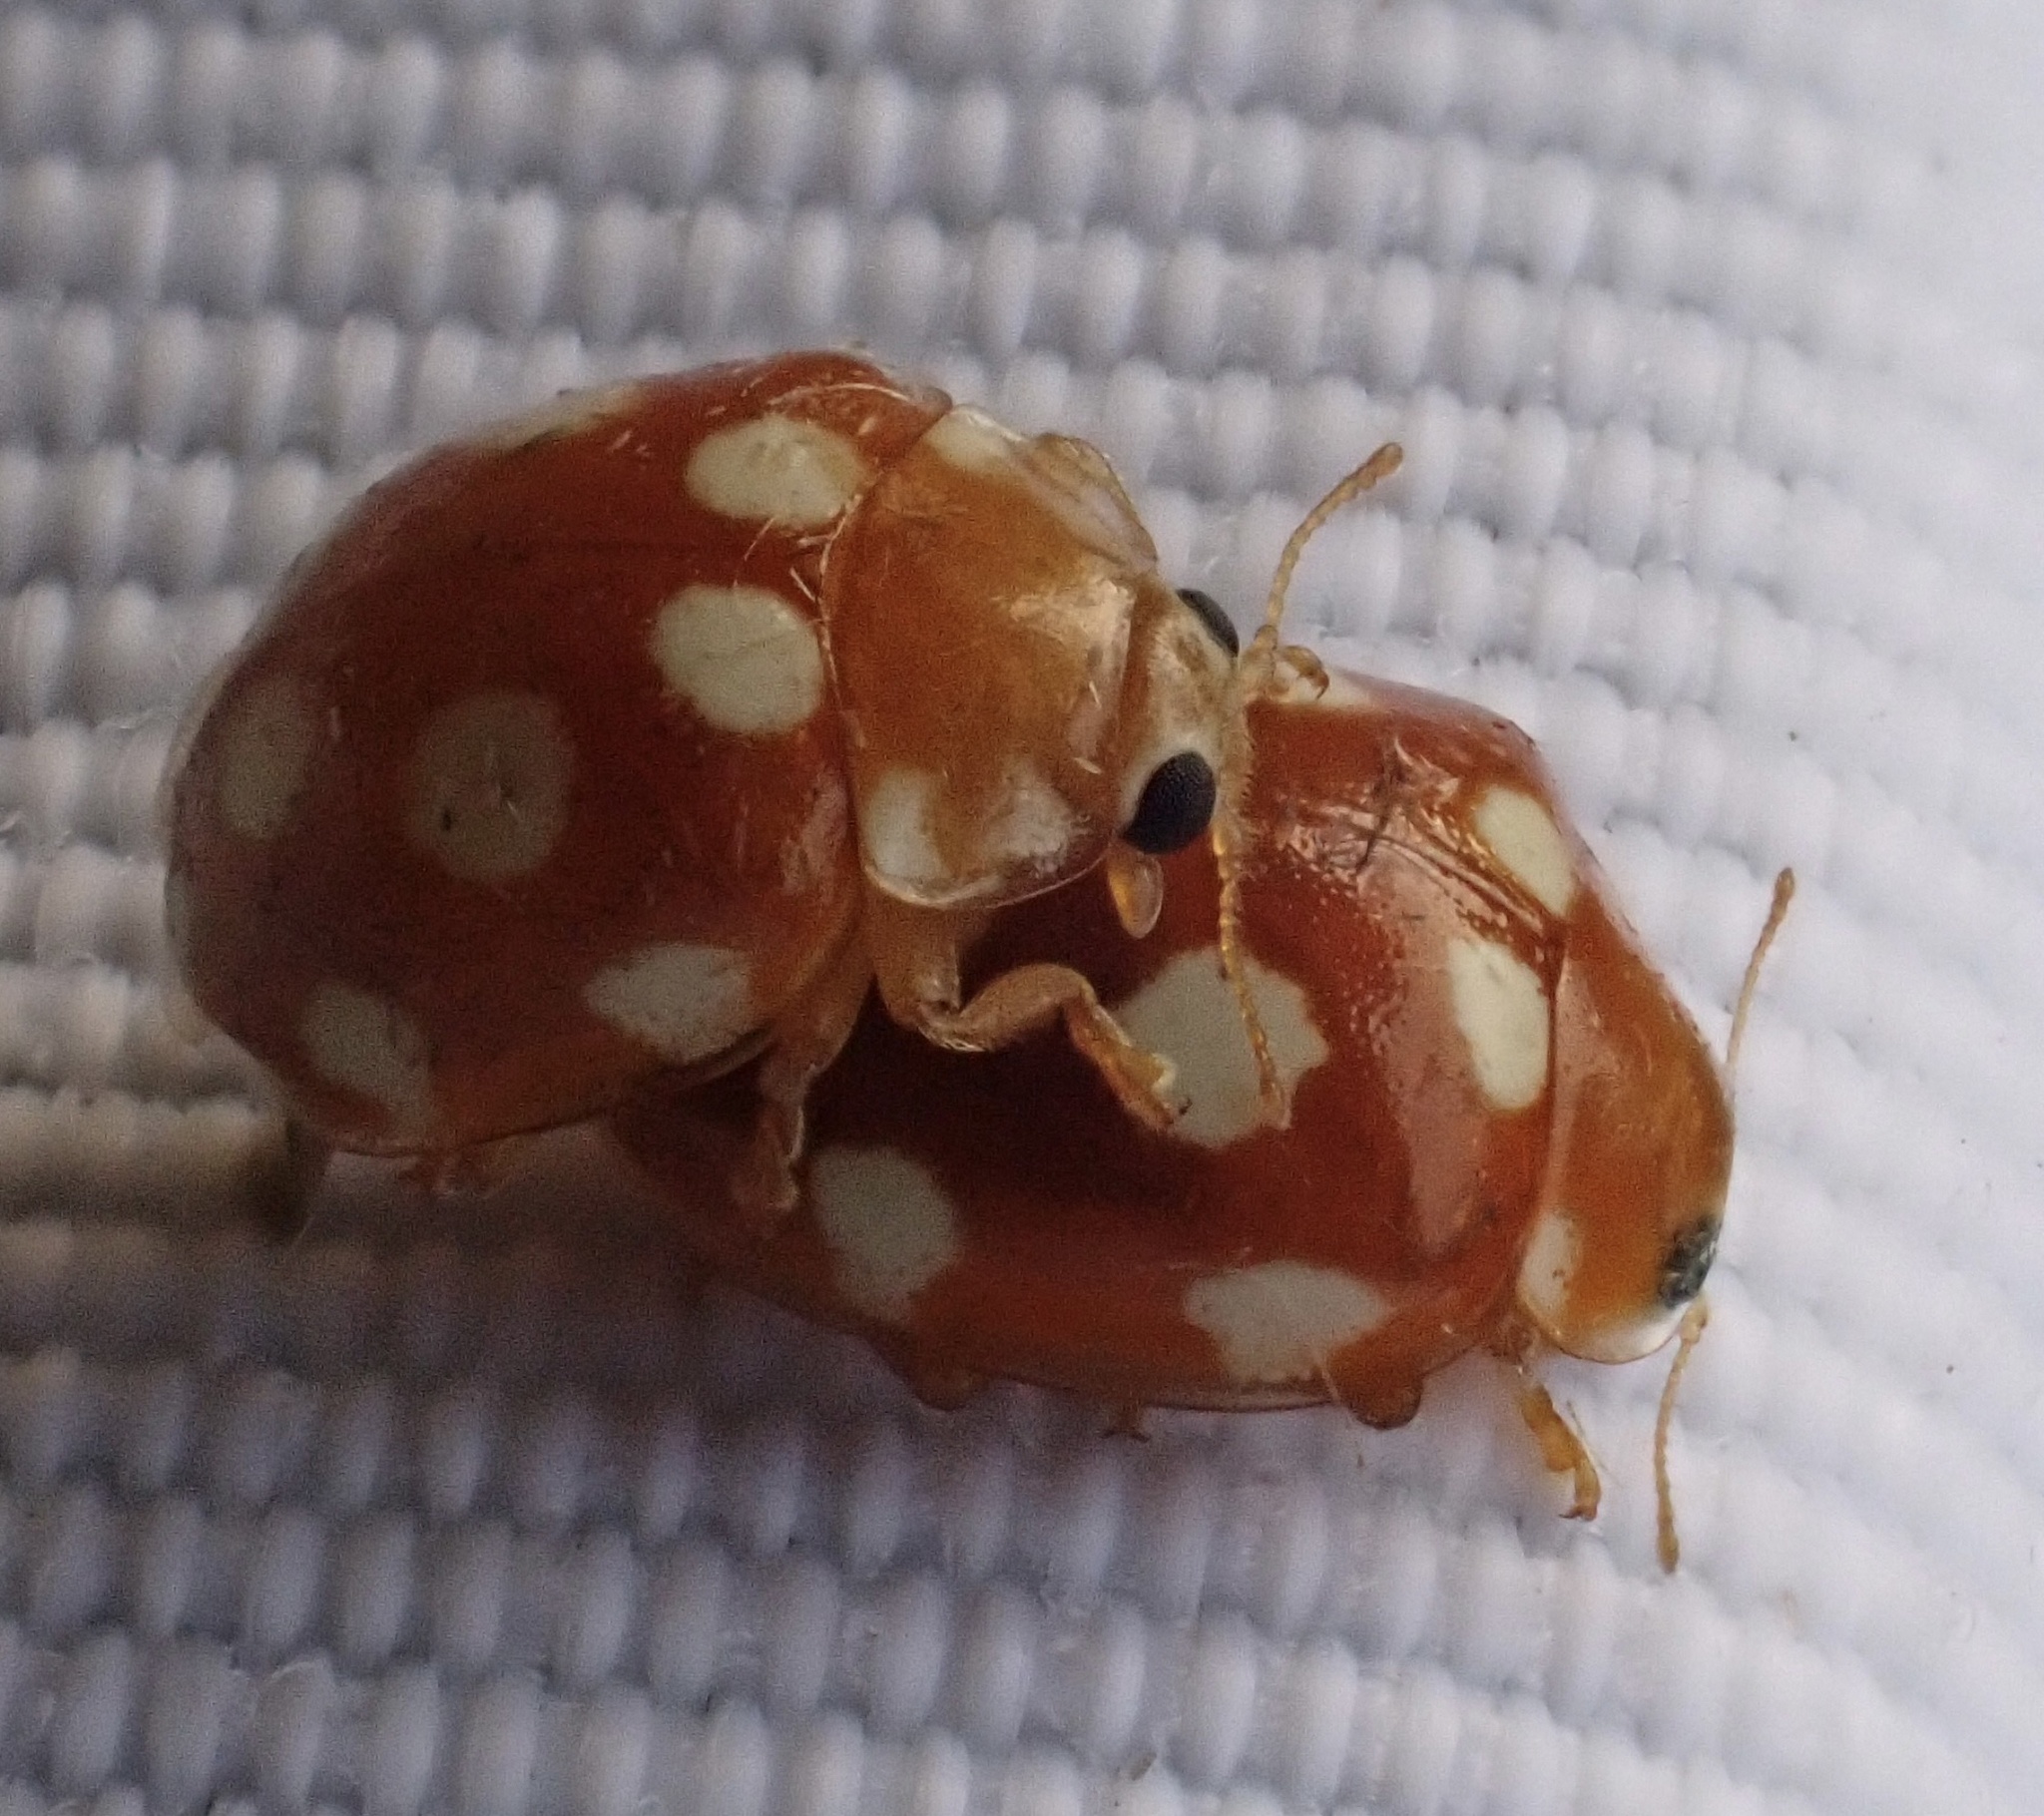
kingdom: Animalia
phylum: Arthropoda
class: Insecta
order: Coleoptera
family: Coccinellidae
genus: Vibidia
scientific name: Vibidia duodecimguttata
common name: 12-spot ladybird
